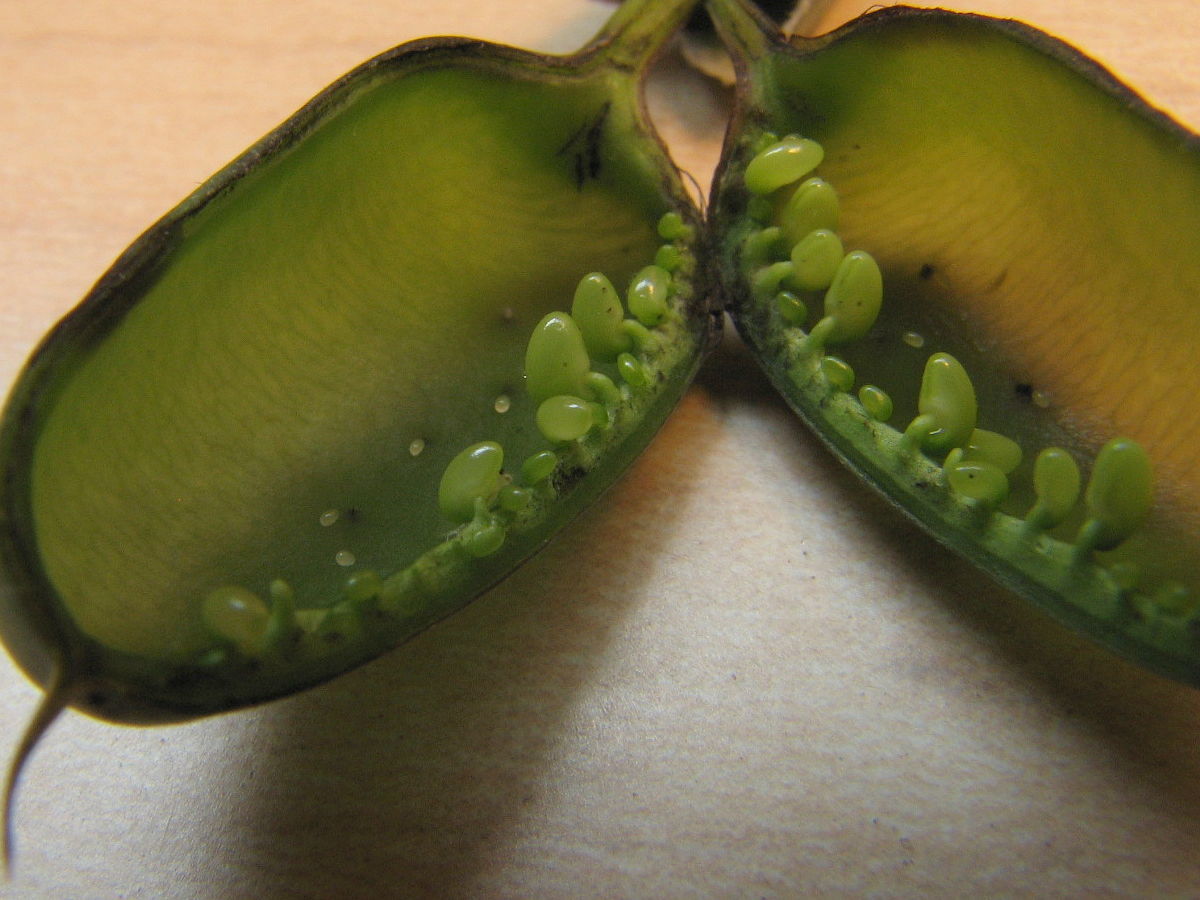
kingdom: Animalia
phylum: Arthropoda
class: Insecta
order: Coleoptera
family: Brentidae
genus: Trichapion
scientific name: Trichapion
